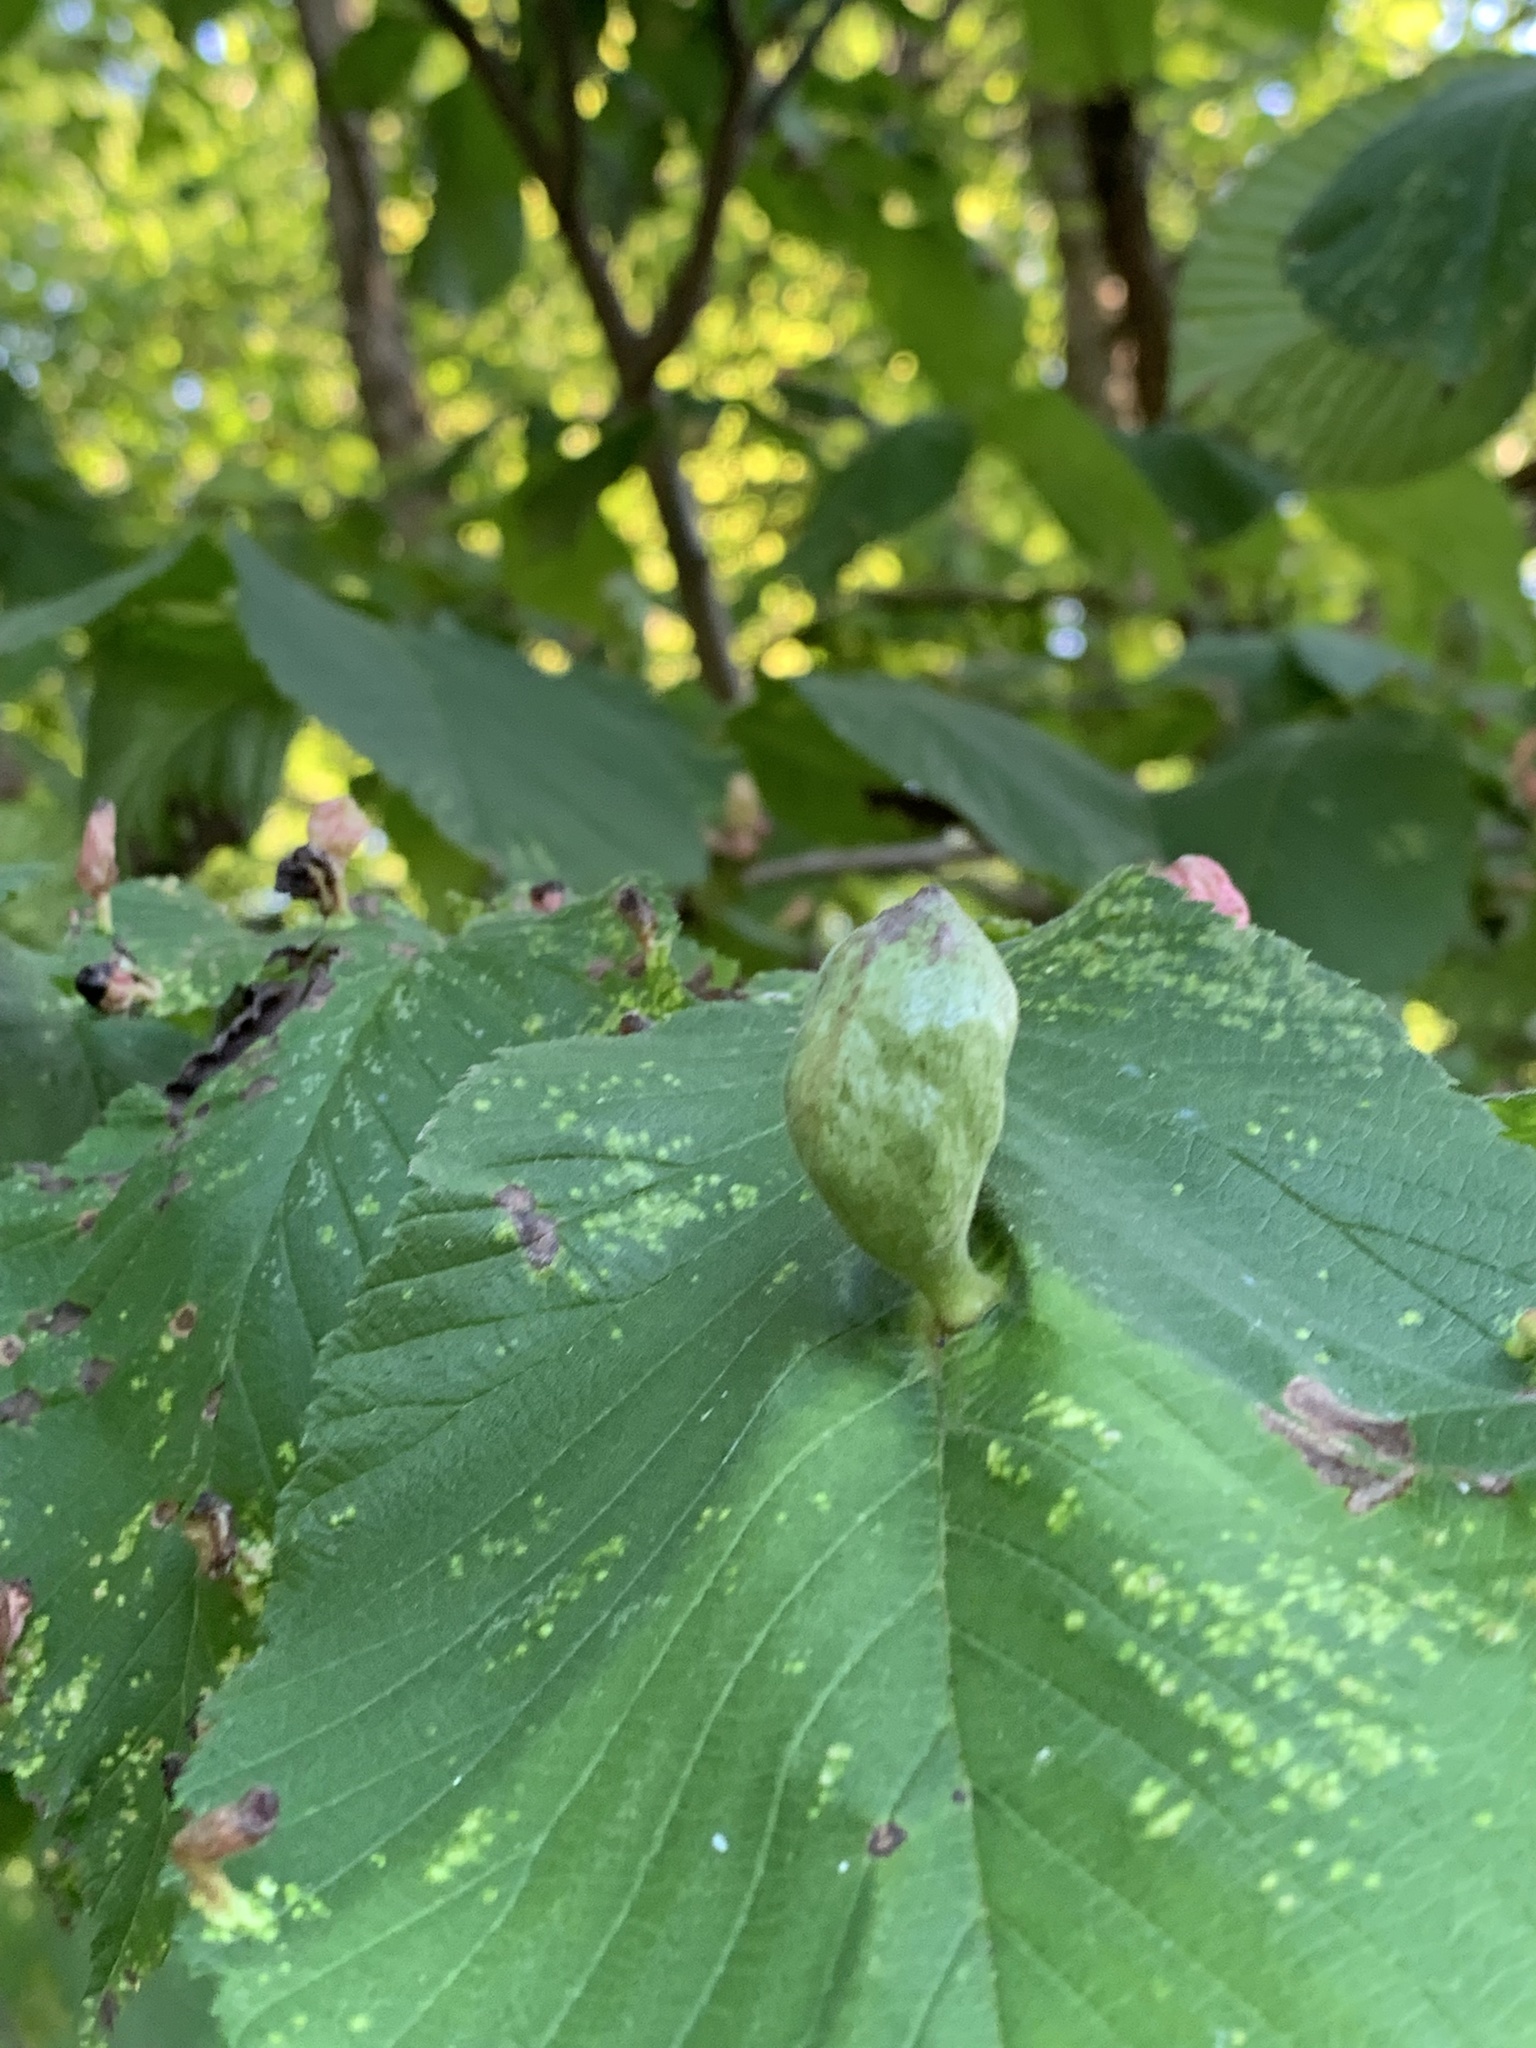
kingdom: Animalia
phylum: Arthropoda
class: Insecta
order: Hemiptera
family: Aphididae
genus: Kaltenbachiella
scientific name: Kaltenbachiella ulmifusa
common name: Elm pouchgall aphid
